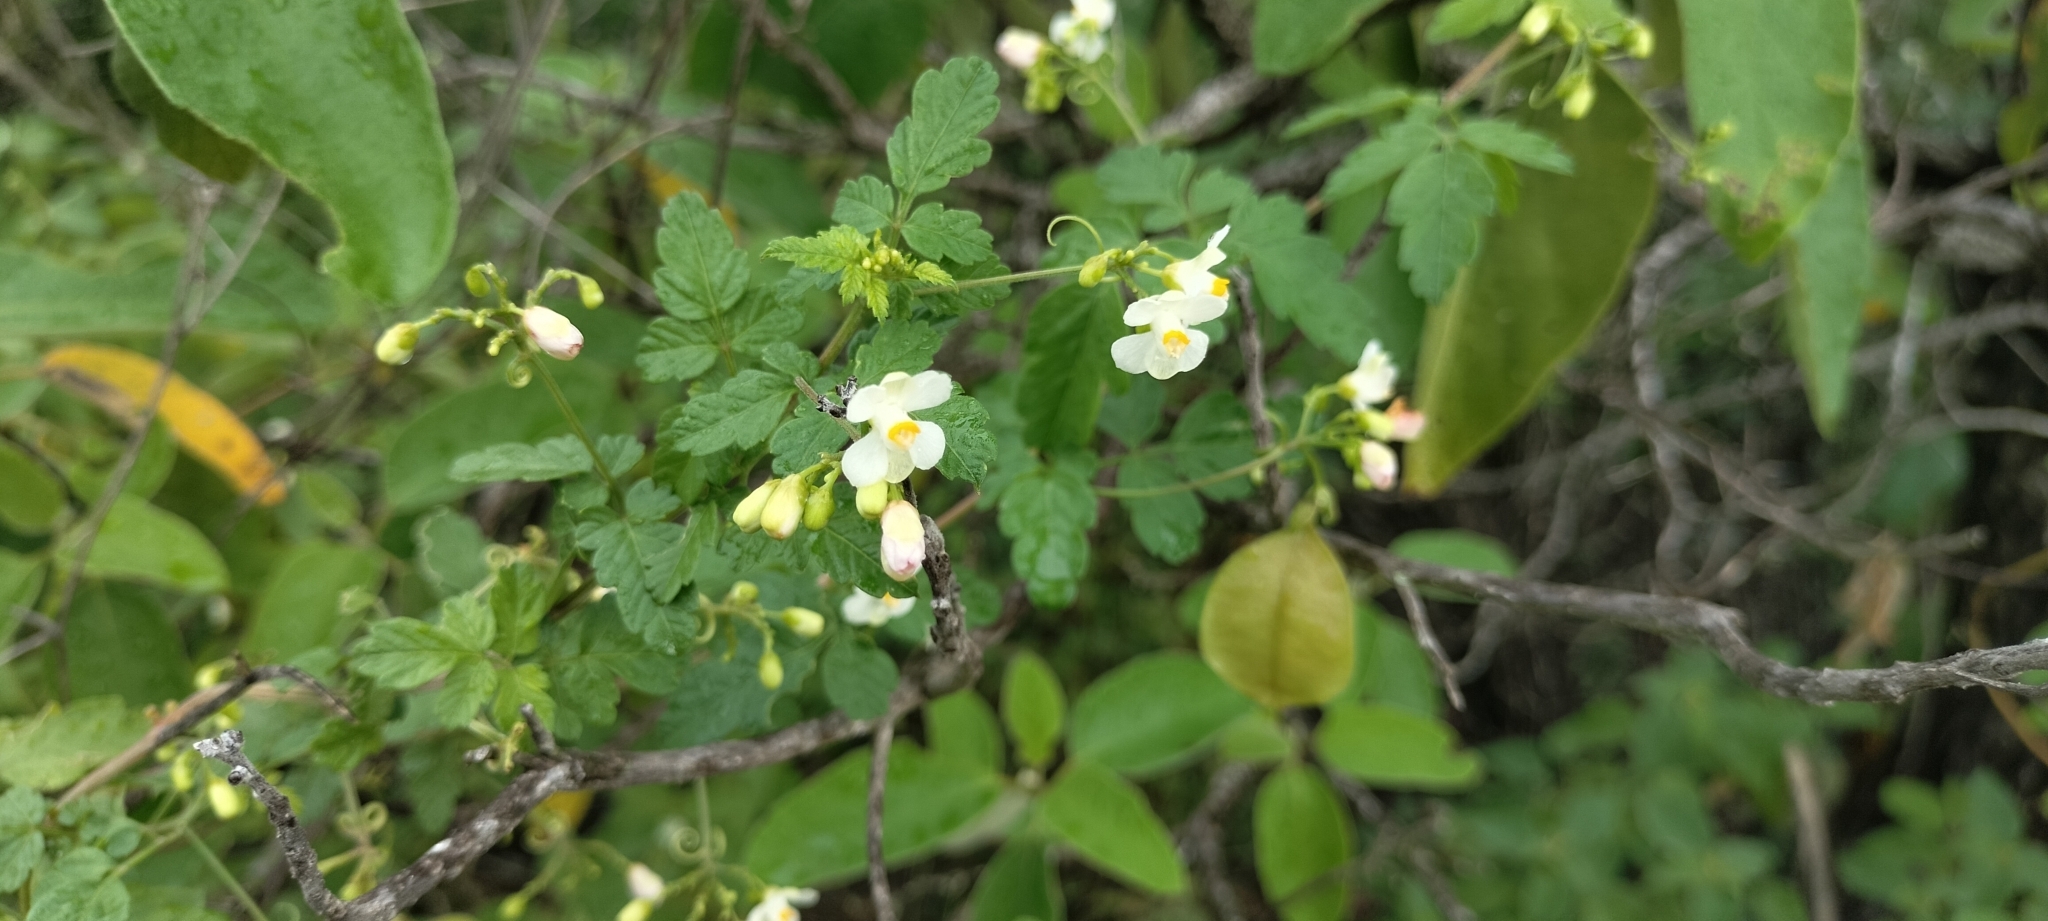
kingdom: Plantae
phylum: Tracheophyta
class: Magnoliopsida
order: Sapindales
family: Sapindaceae
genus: Cardiospermum
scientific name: Cardiospermum halicacabum
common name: Balloon vine
